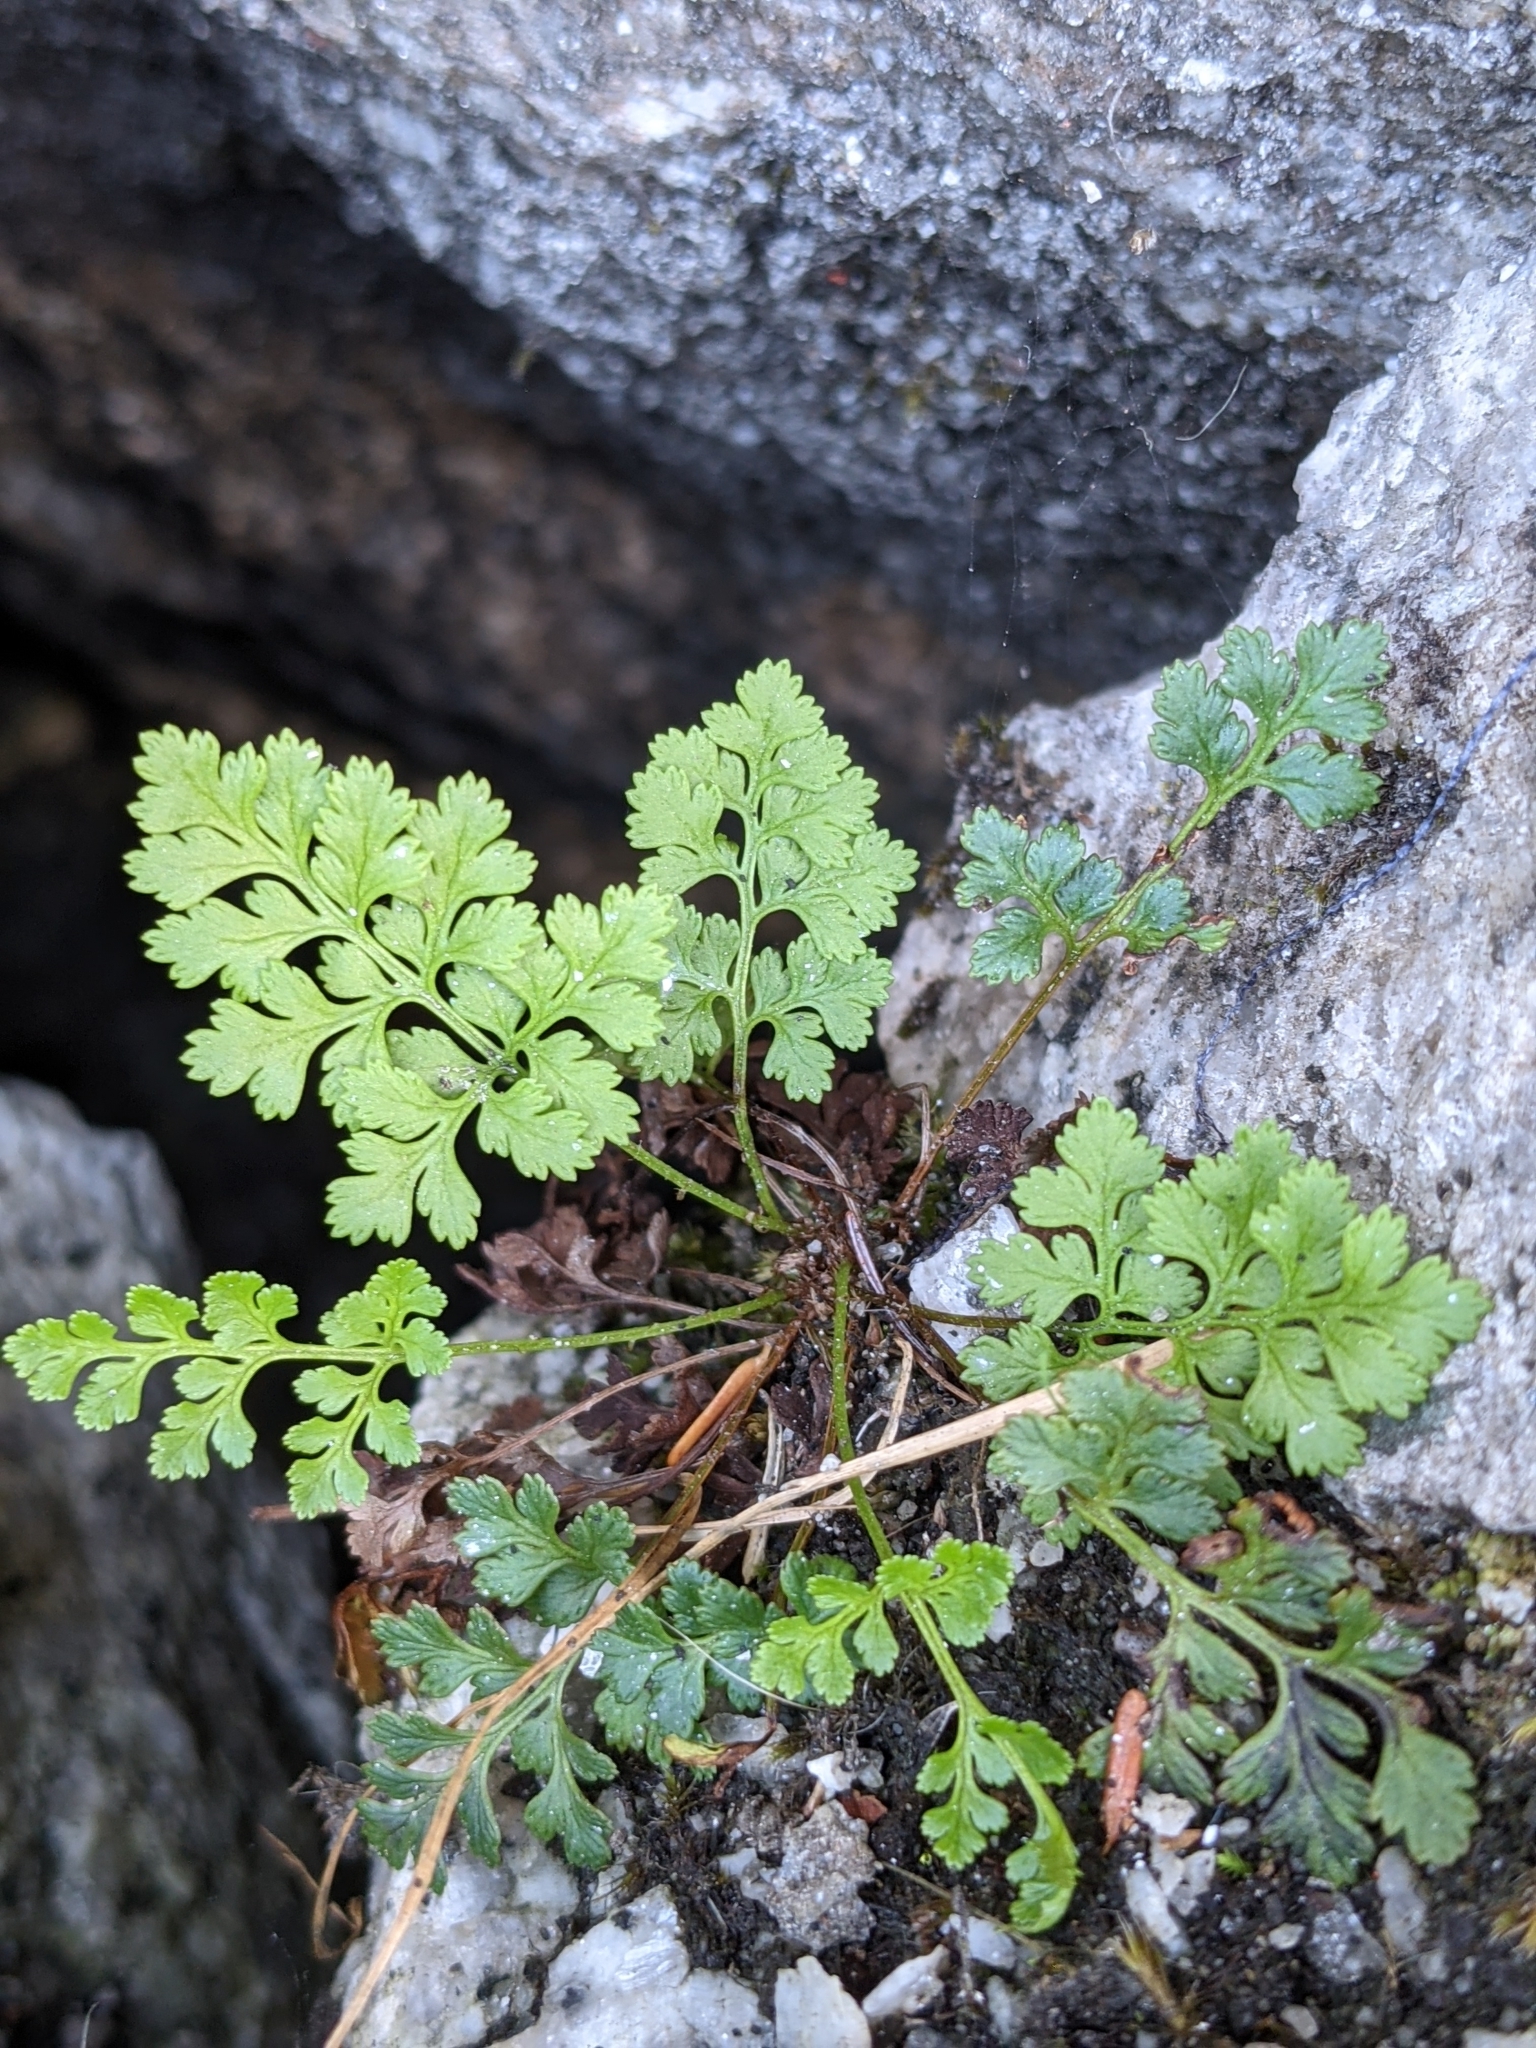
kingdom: Plantae
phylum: Tracheophyta
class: Polypodiopsida
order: Polypodiales
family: Pteridaceae
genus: Cryptogramma
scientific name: Cryptogramma acrostichoides
